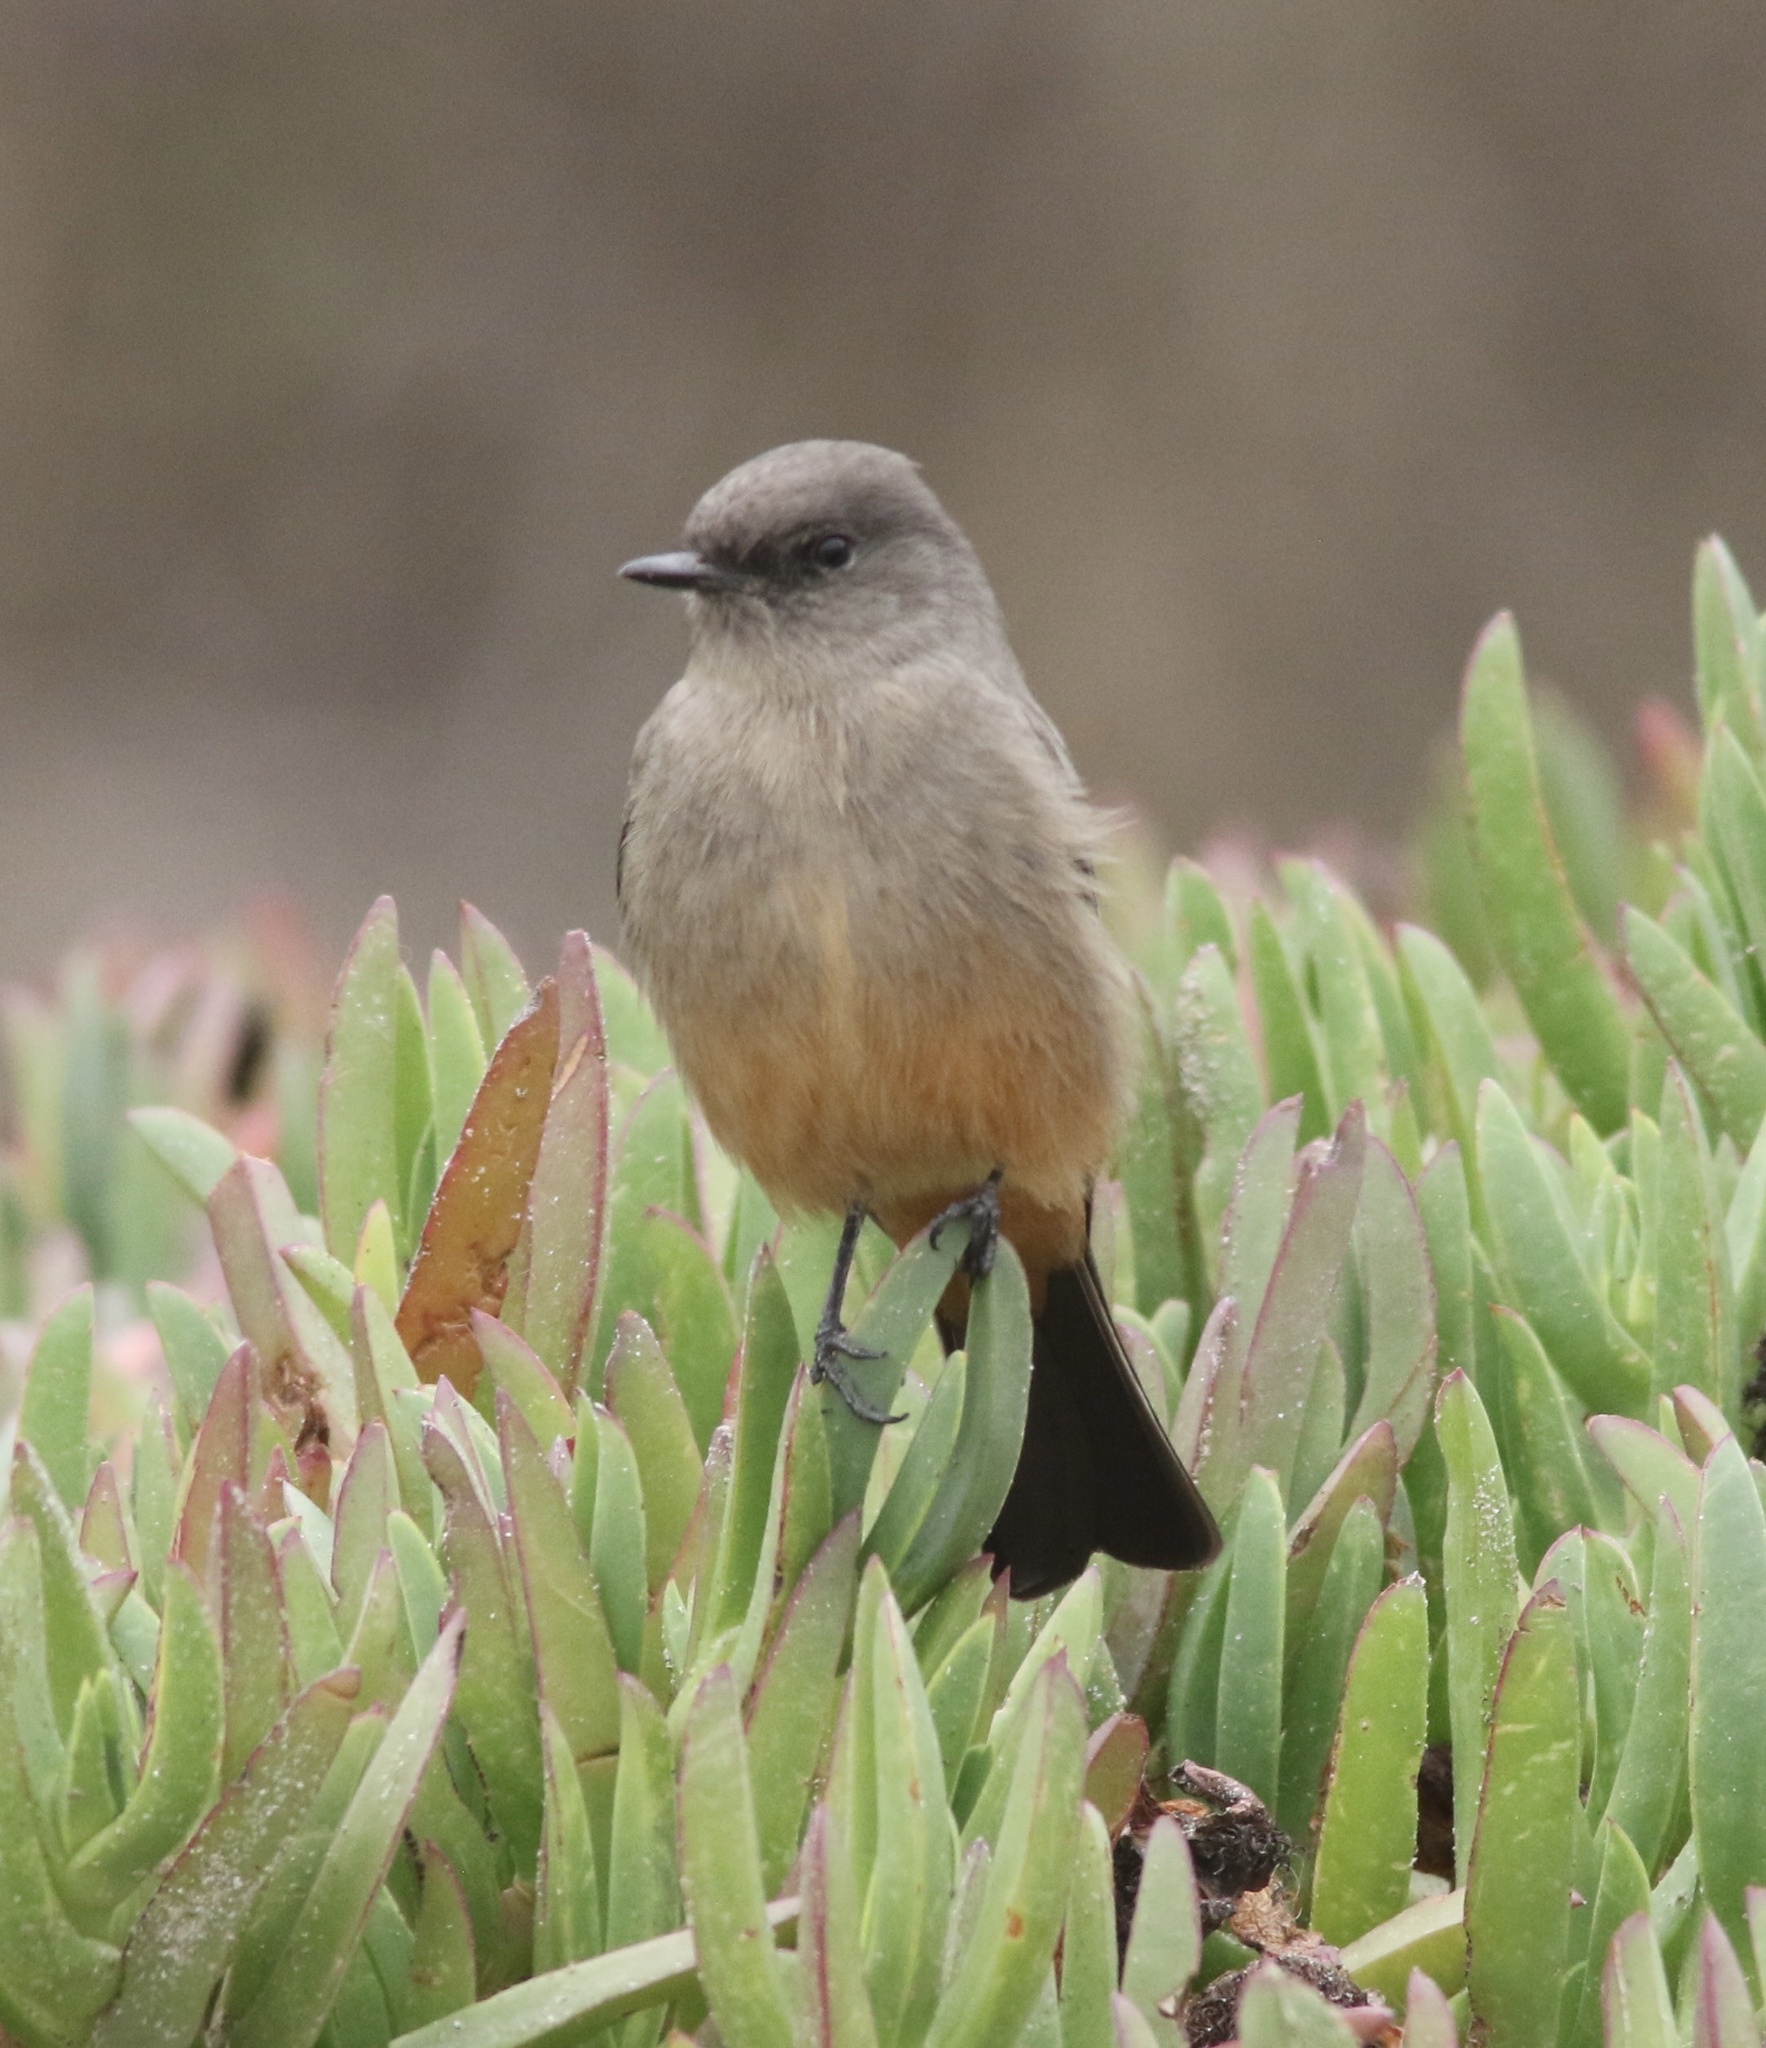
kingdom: Animalia
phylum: Chordata
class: Aves
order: Passeriformes
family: Tyrannidae
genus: Sayornis
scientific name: Sayornis saya
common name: Say's phoebe
